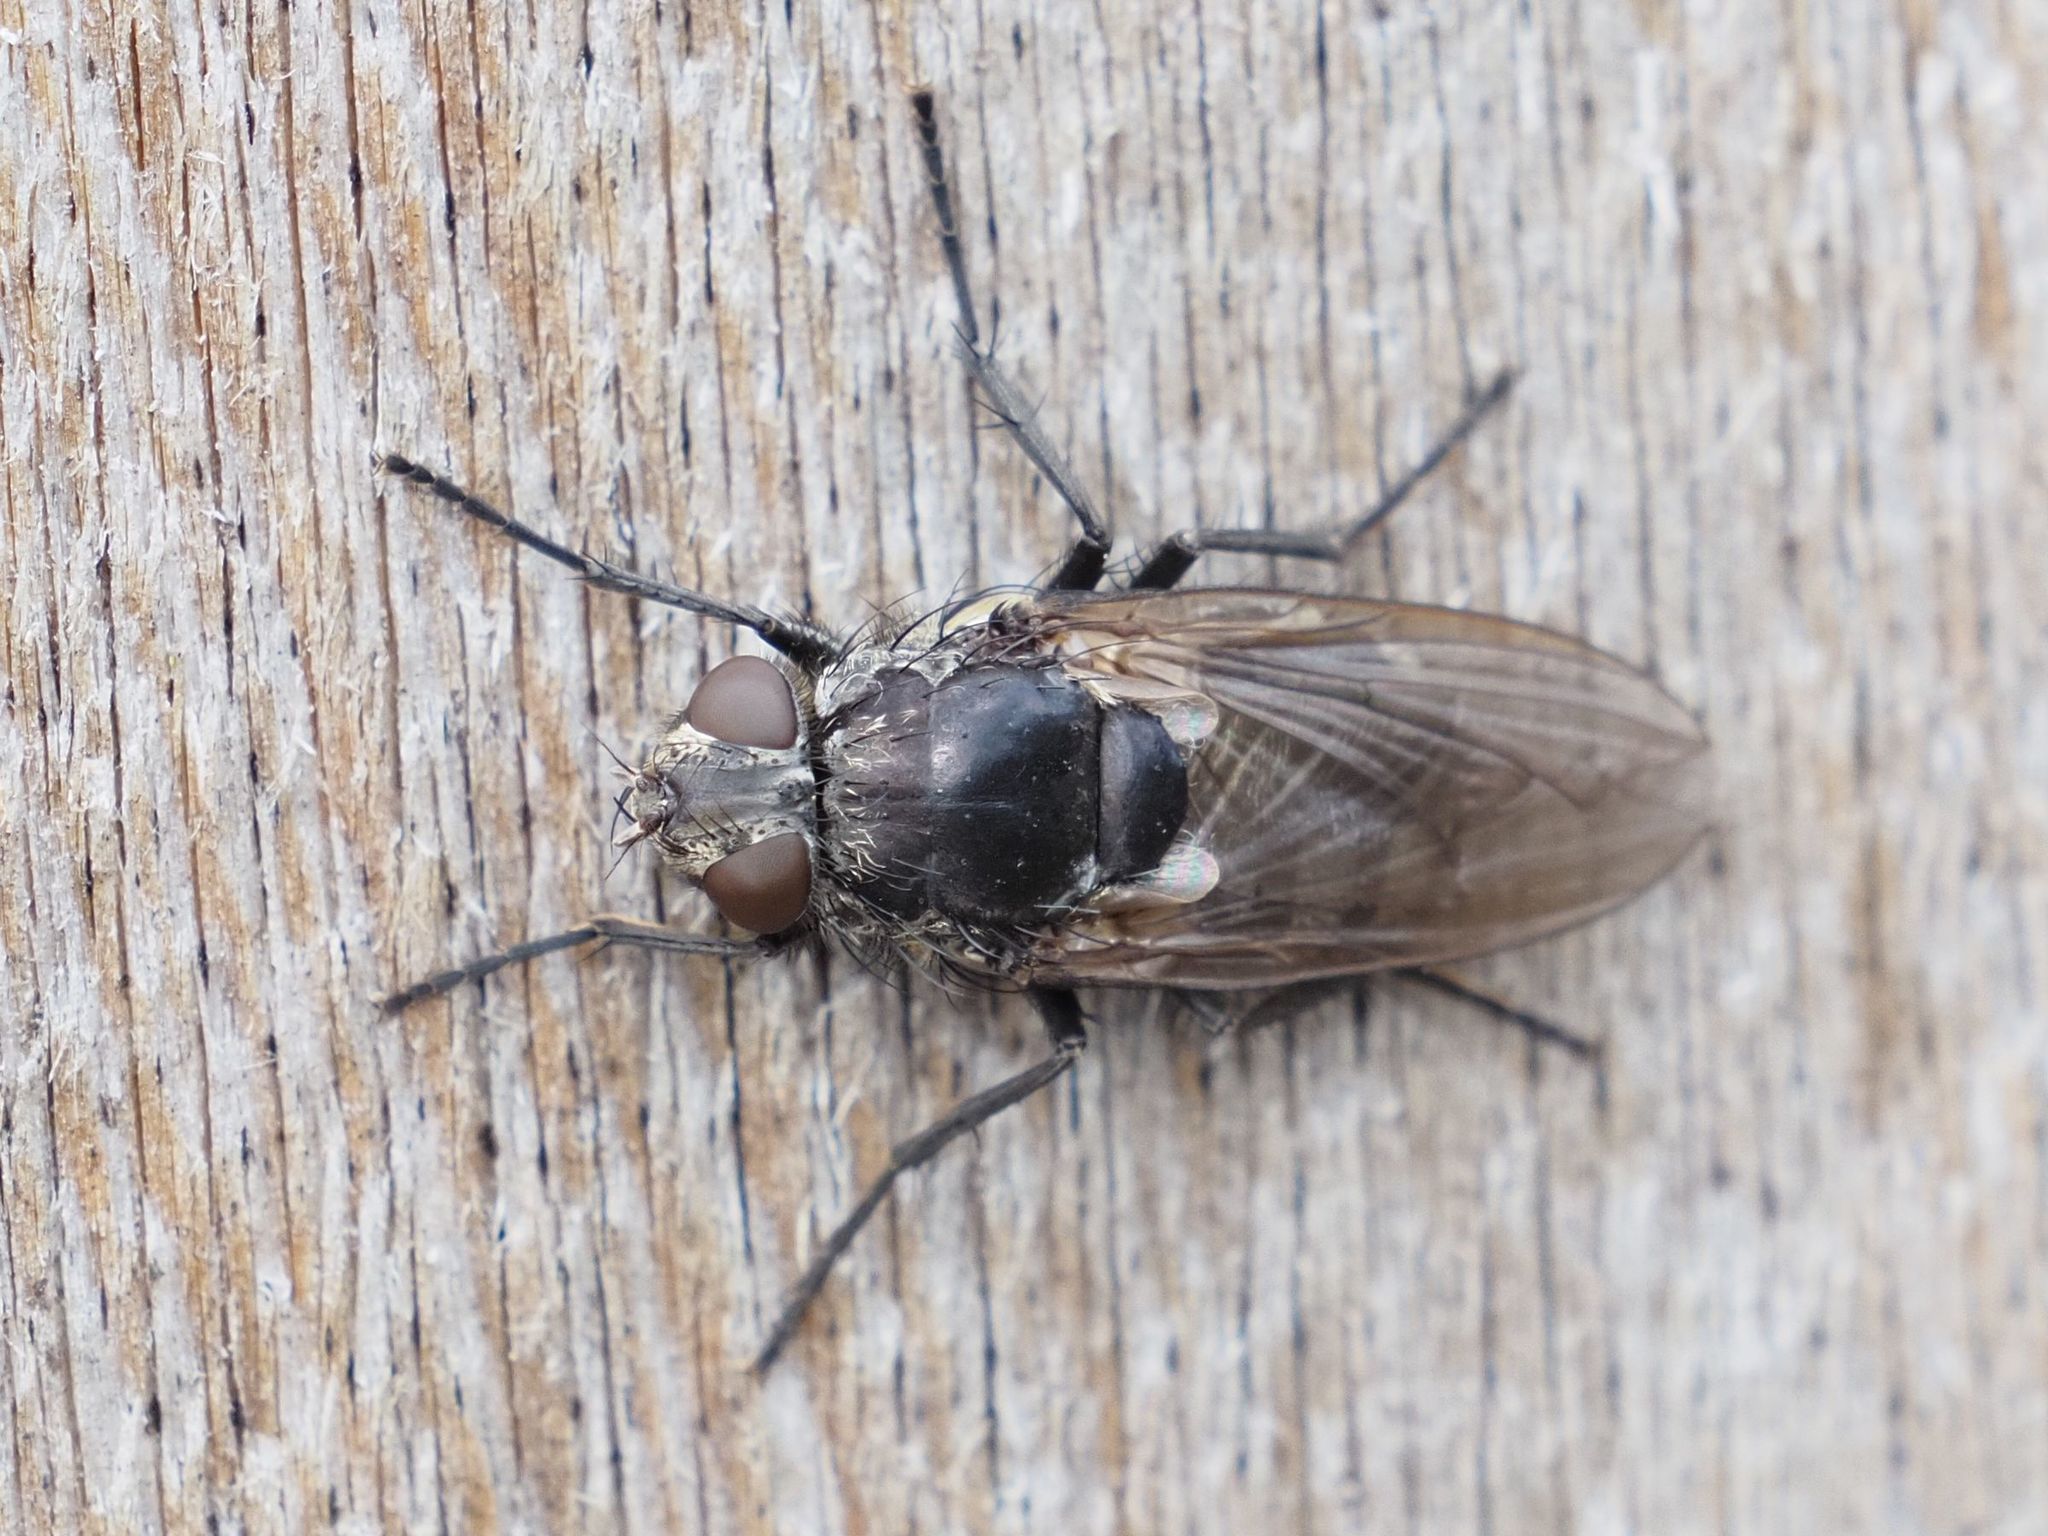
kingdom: Animalia
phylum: Arthropoda
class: Insecta
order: Diptera
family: Polleniidae
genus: Pollenia
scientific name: Pollenia vagabunda
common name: Vagabund cluster fly
